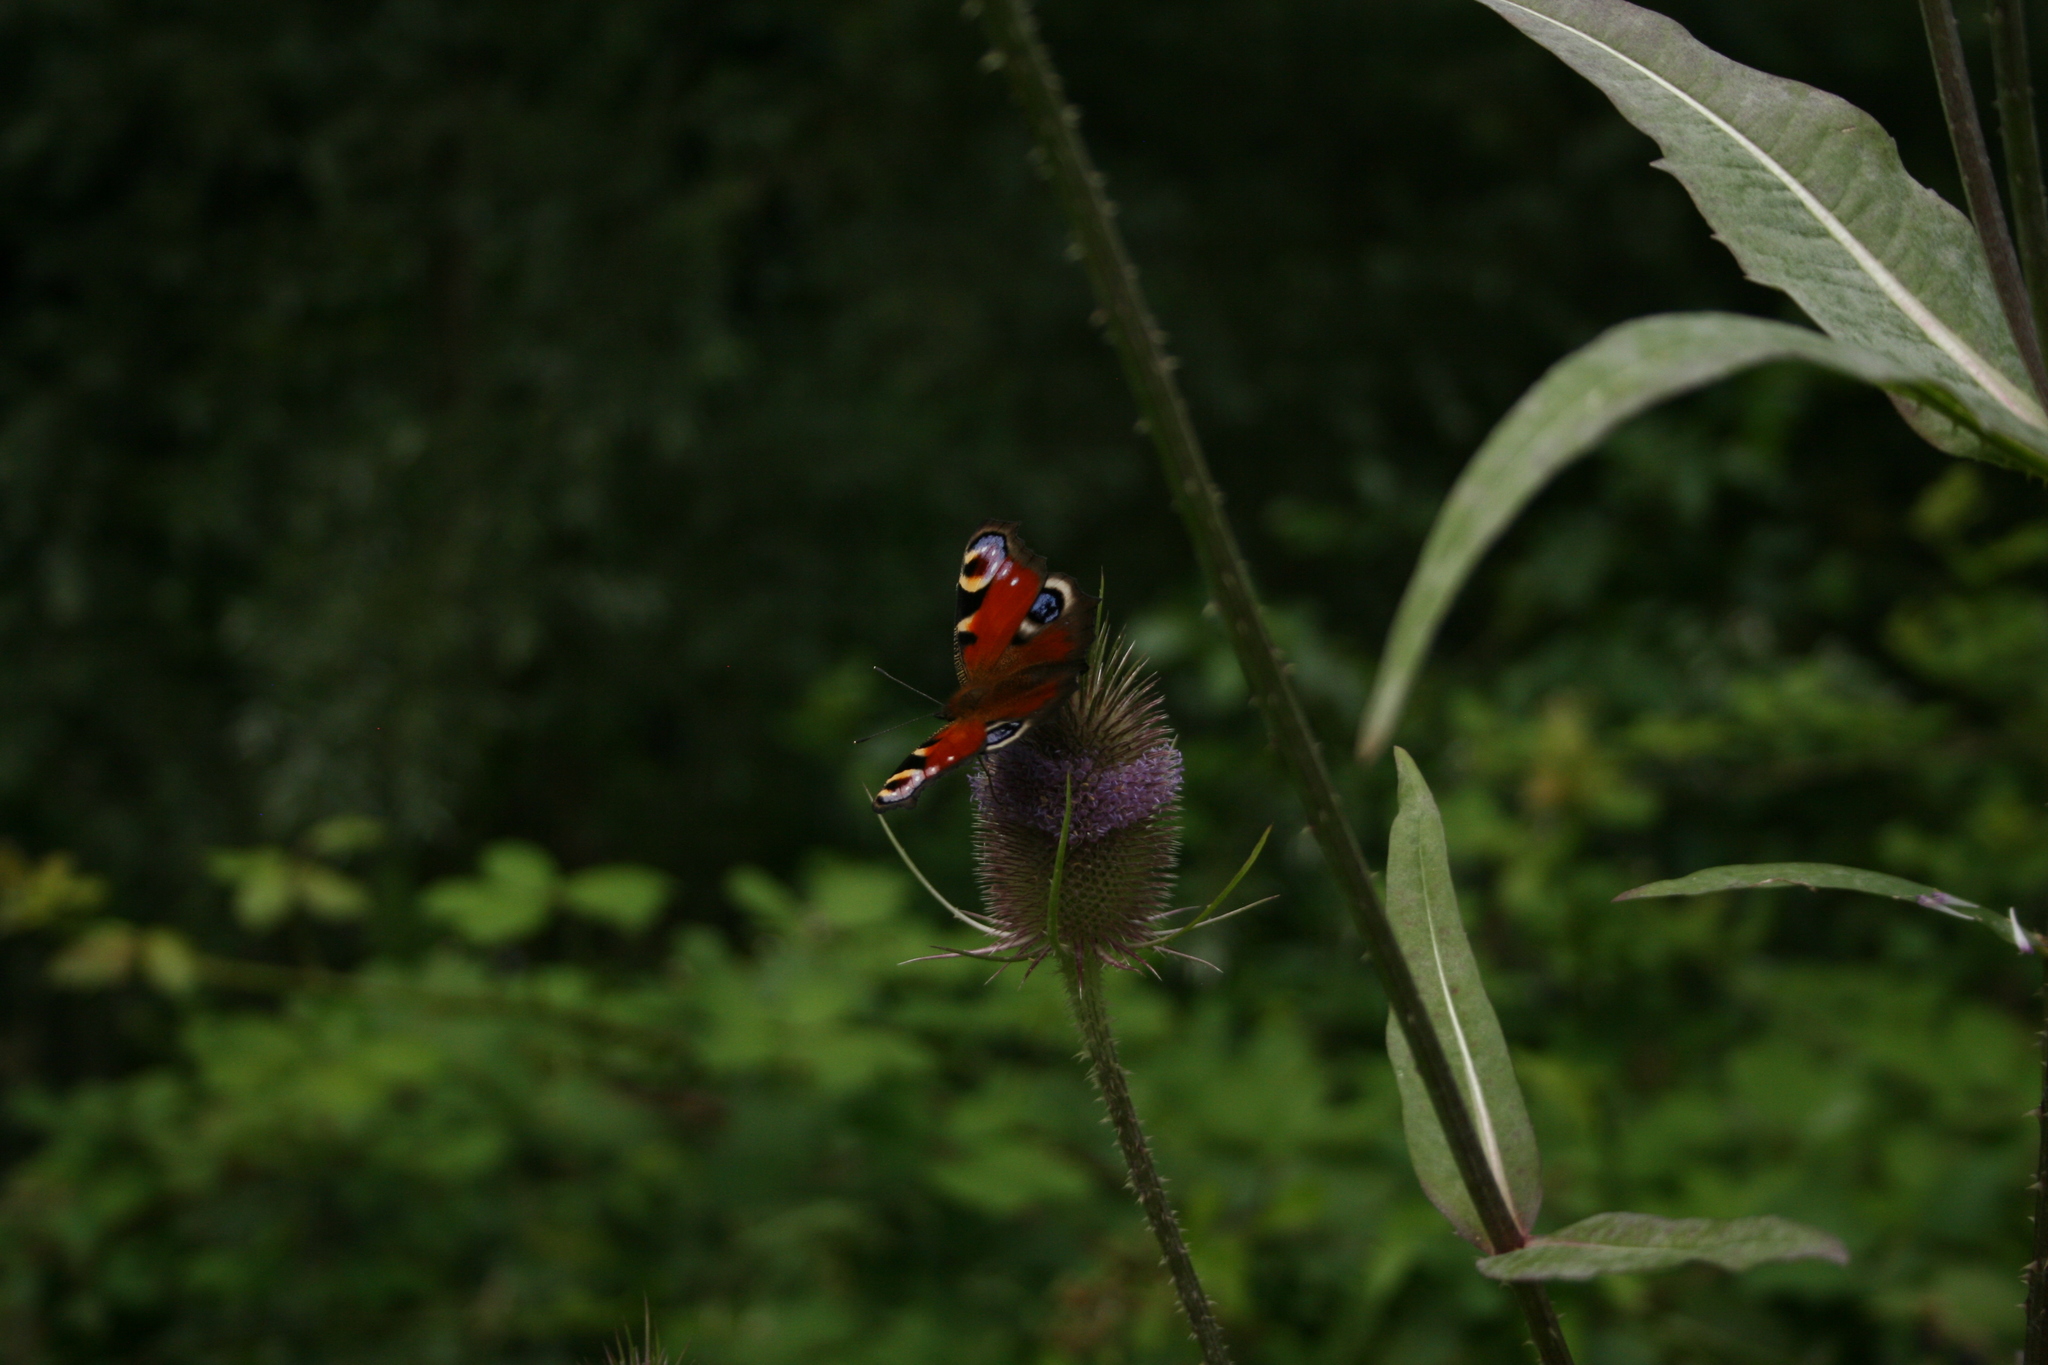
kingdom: Animalia
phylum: Arthropoda
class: Insecta
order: Lepidoptera
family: Nymphalidae
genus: Aglais
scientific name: Aglais io
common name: Peacock
